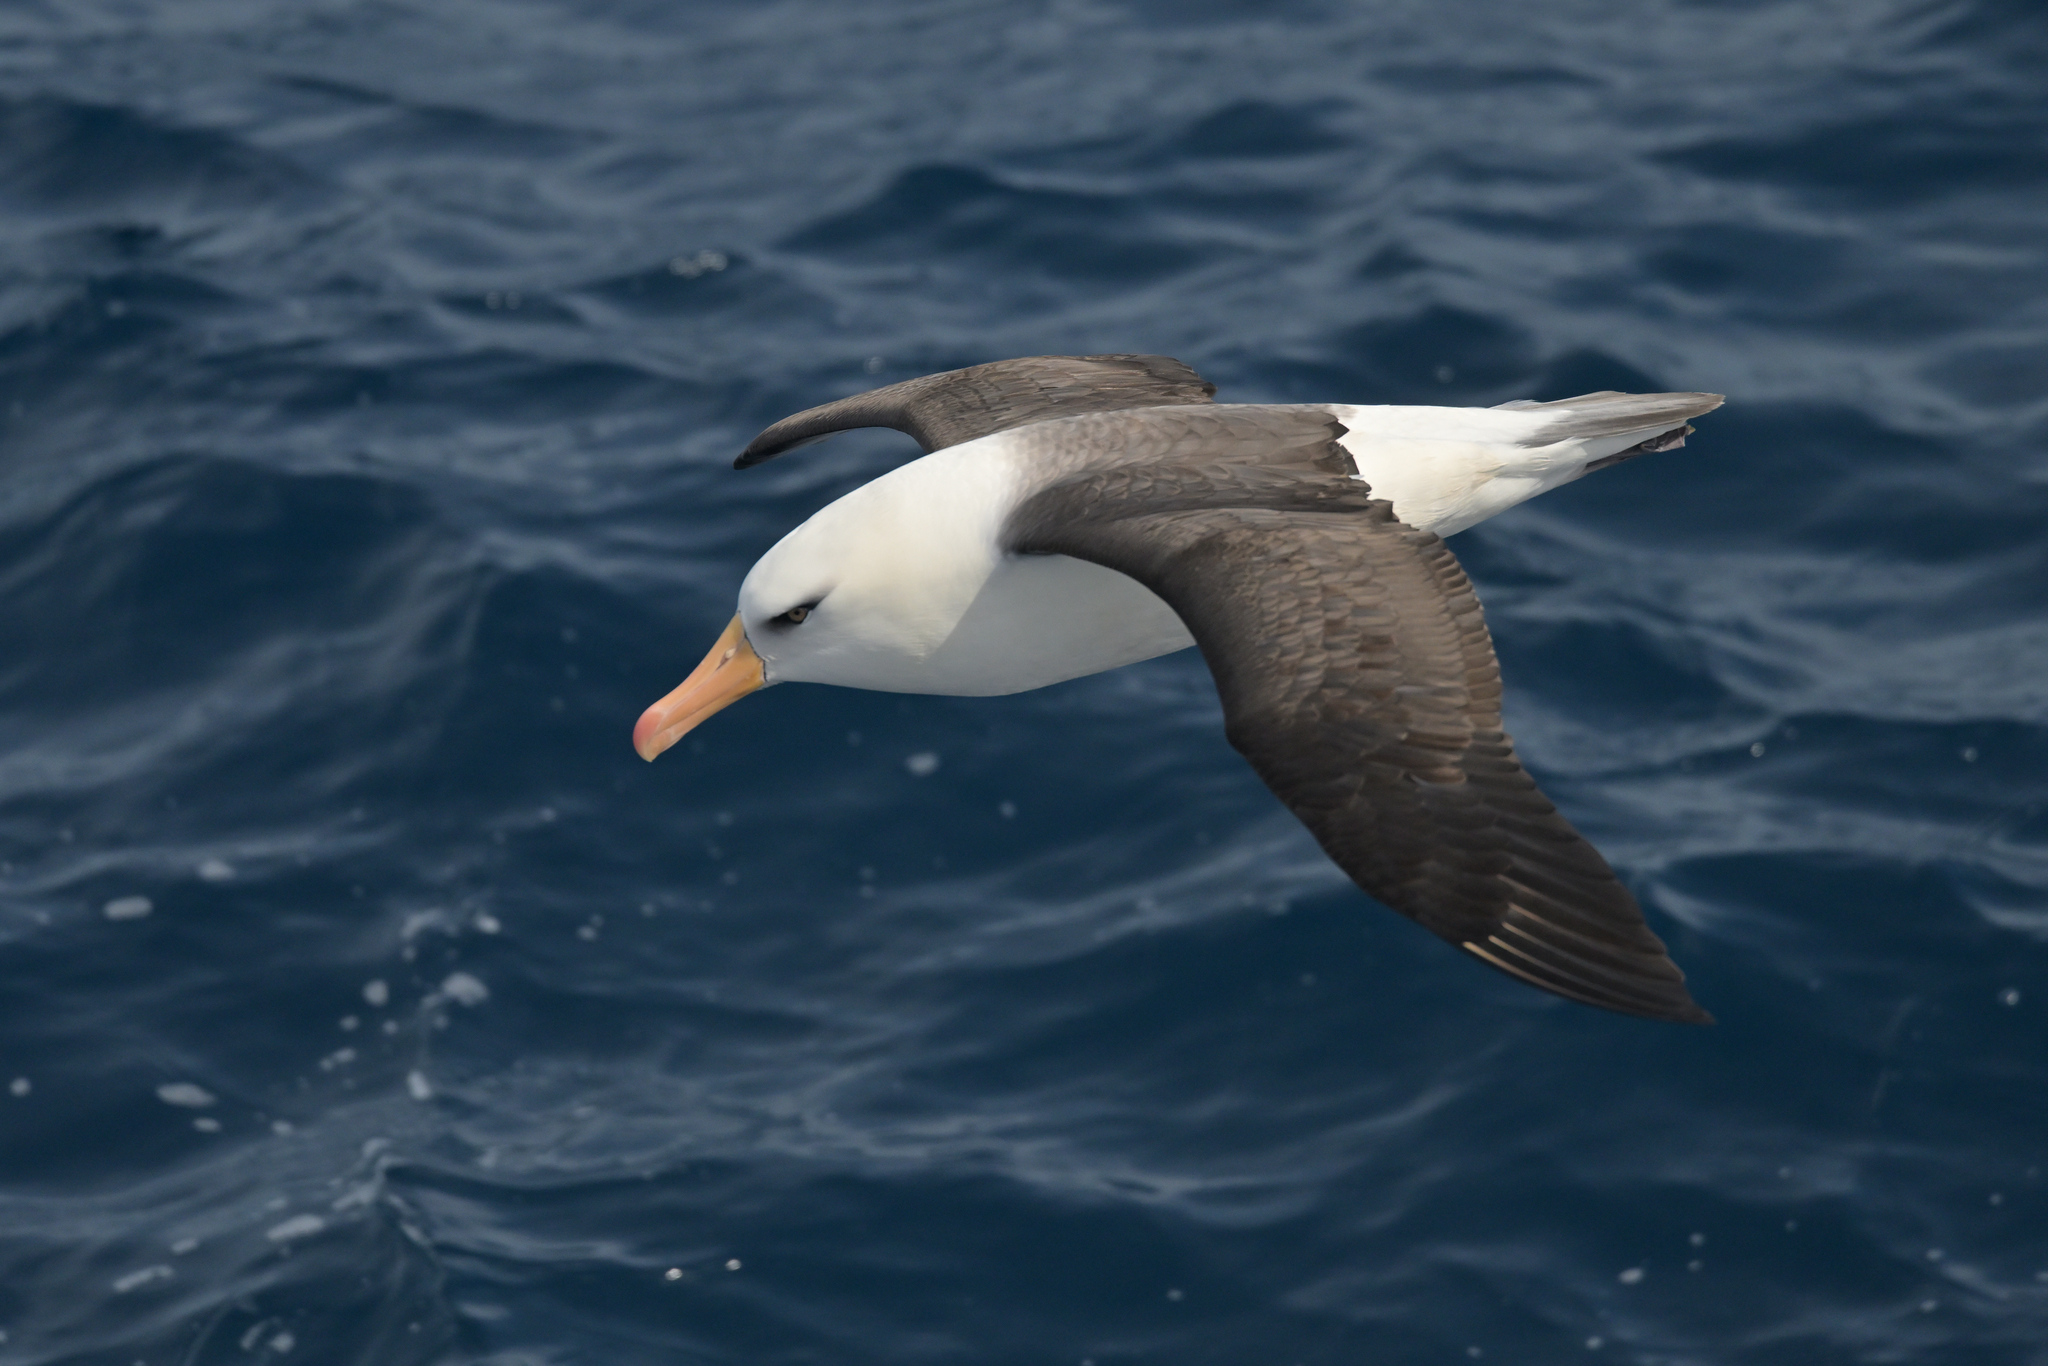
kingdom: Animalia
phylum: Chordata
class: Aves
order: Procellariiformes
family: Diomedeidae
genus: Thalassarche
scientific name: Thalassarche impavida
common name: Campbell albatross
